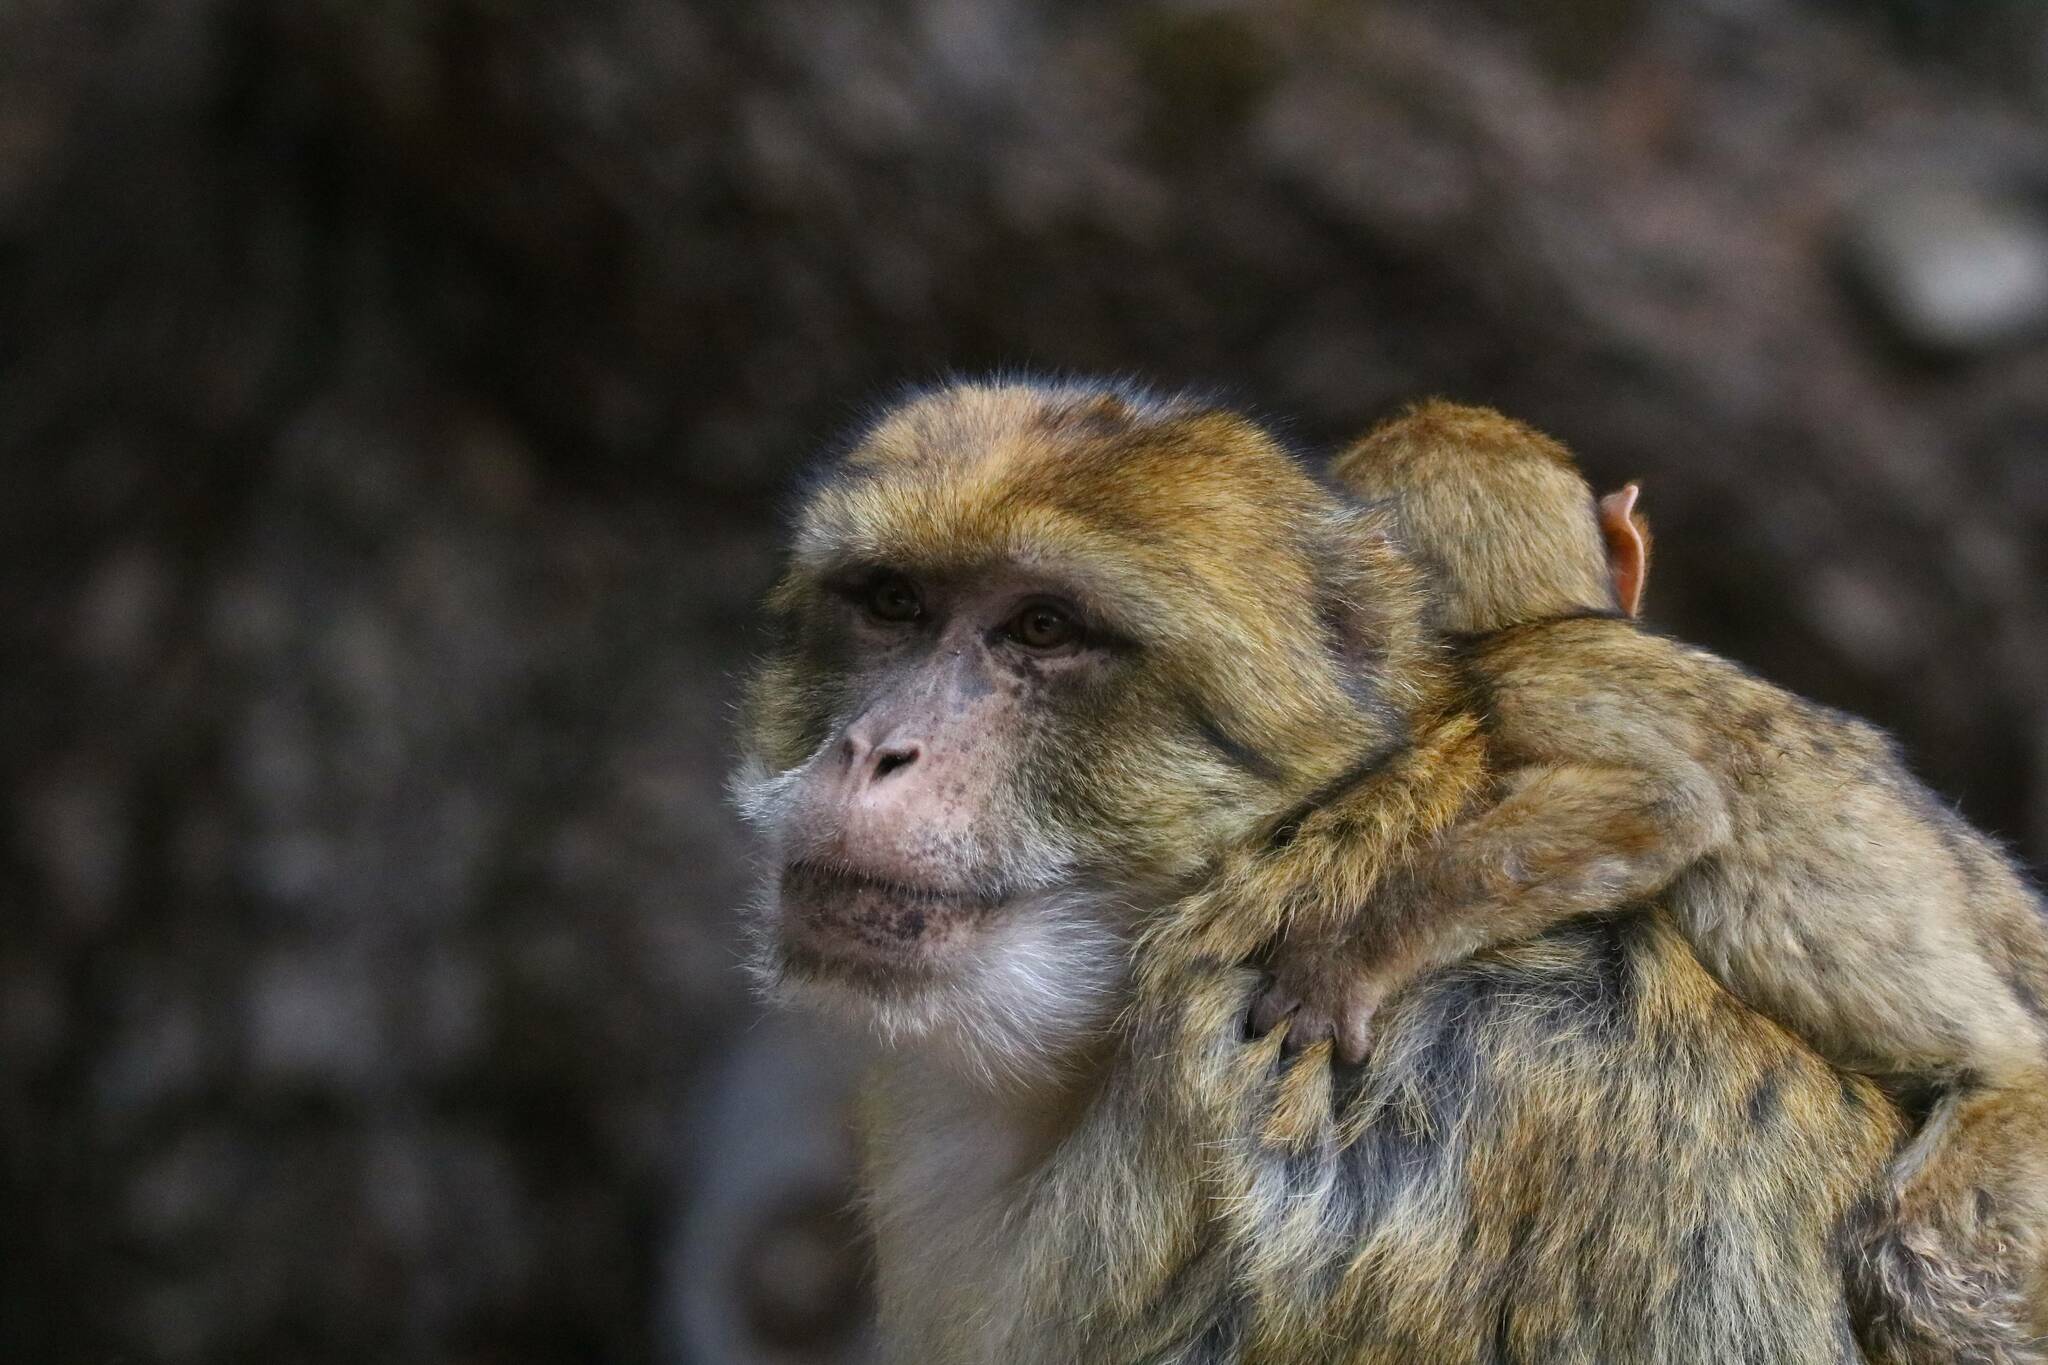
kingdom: Animalia
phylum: Chordata
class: Mammalia
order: Primates
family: Cercopithecidae
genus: Macaca
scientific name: Macaca sylvanus
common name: Barbary macaque
